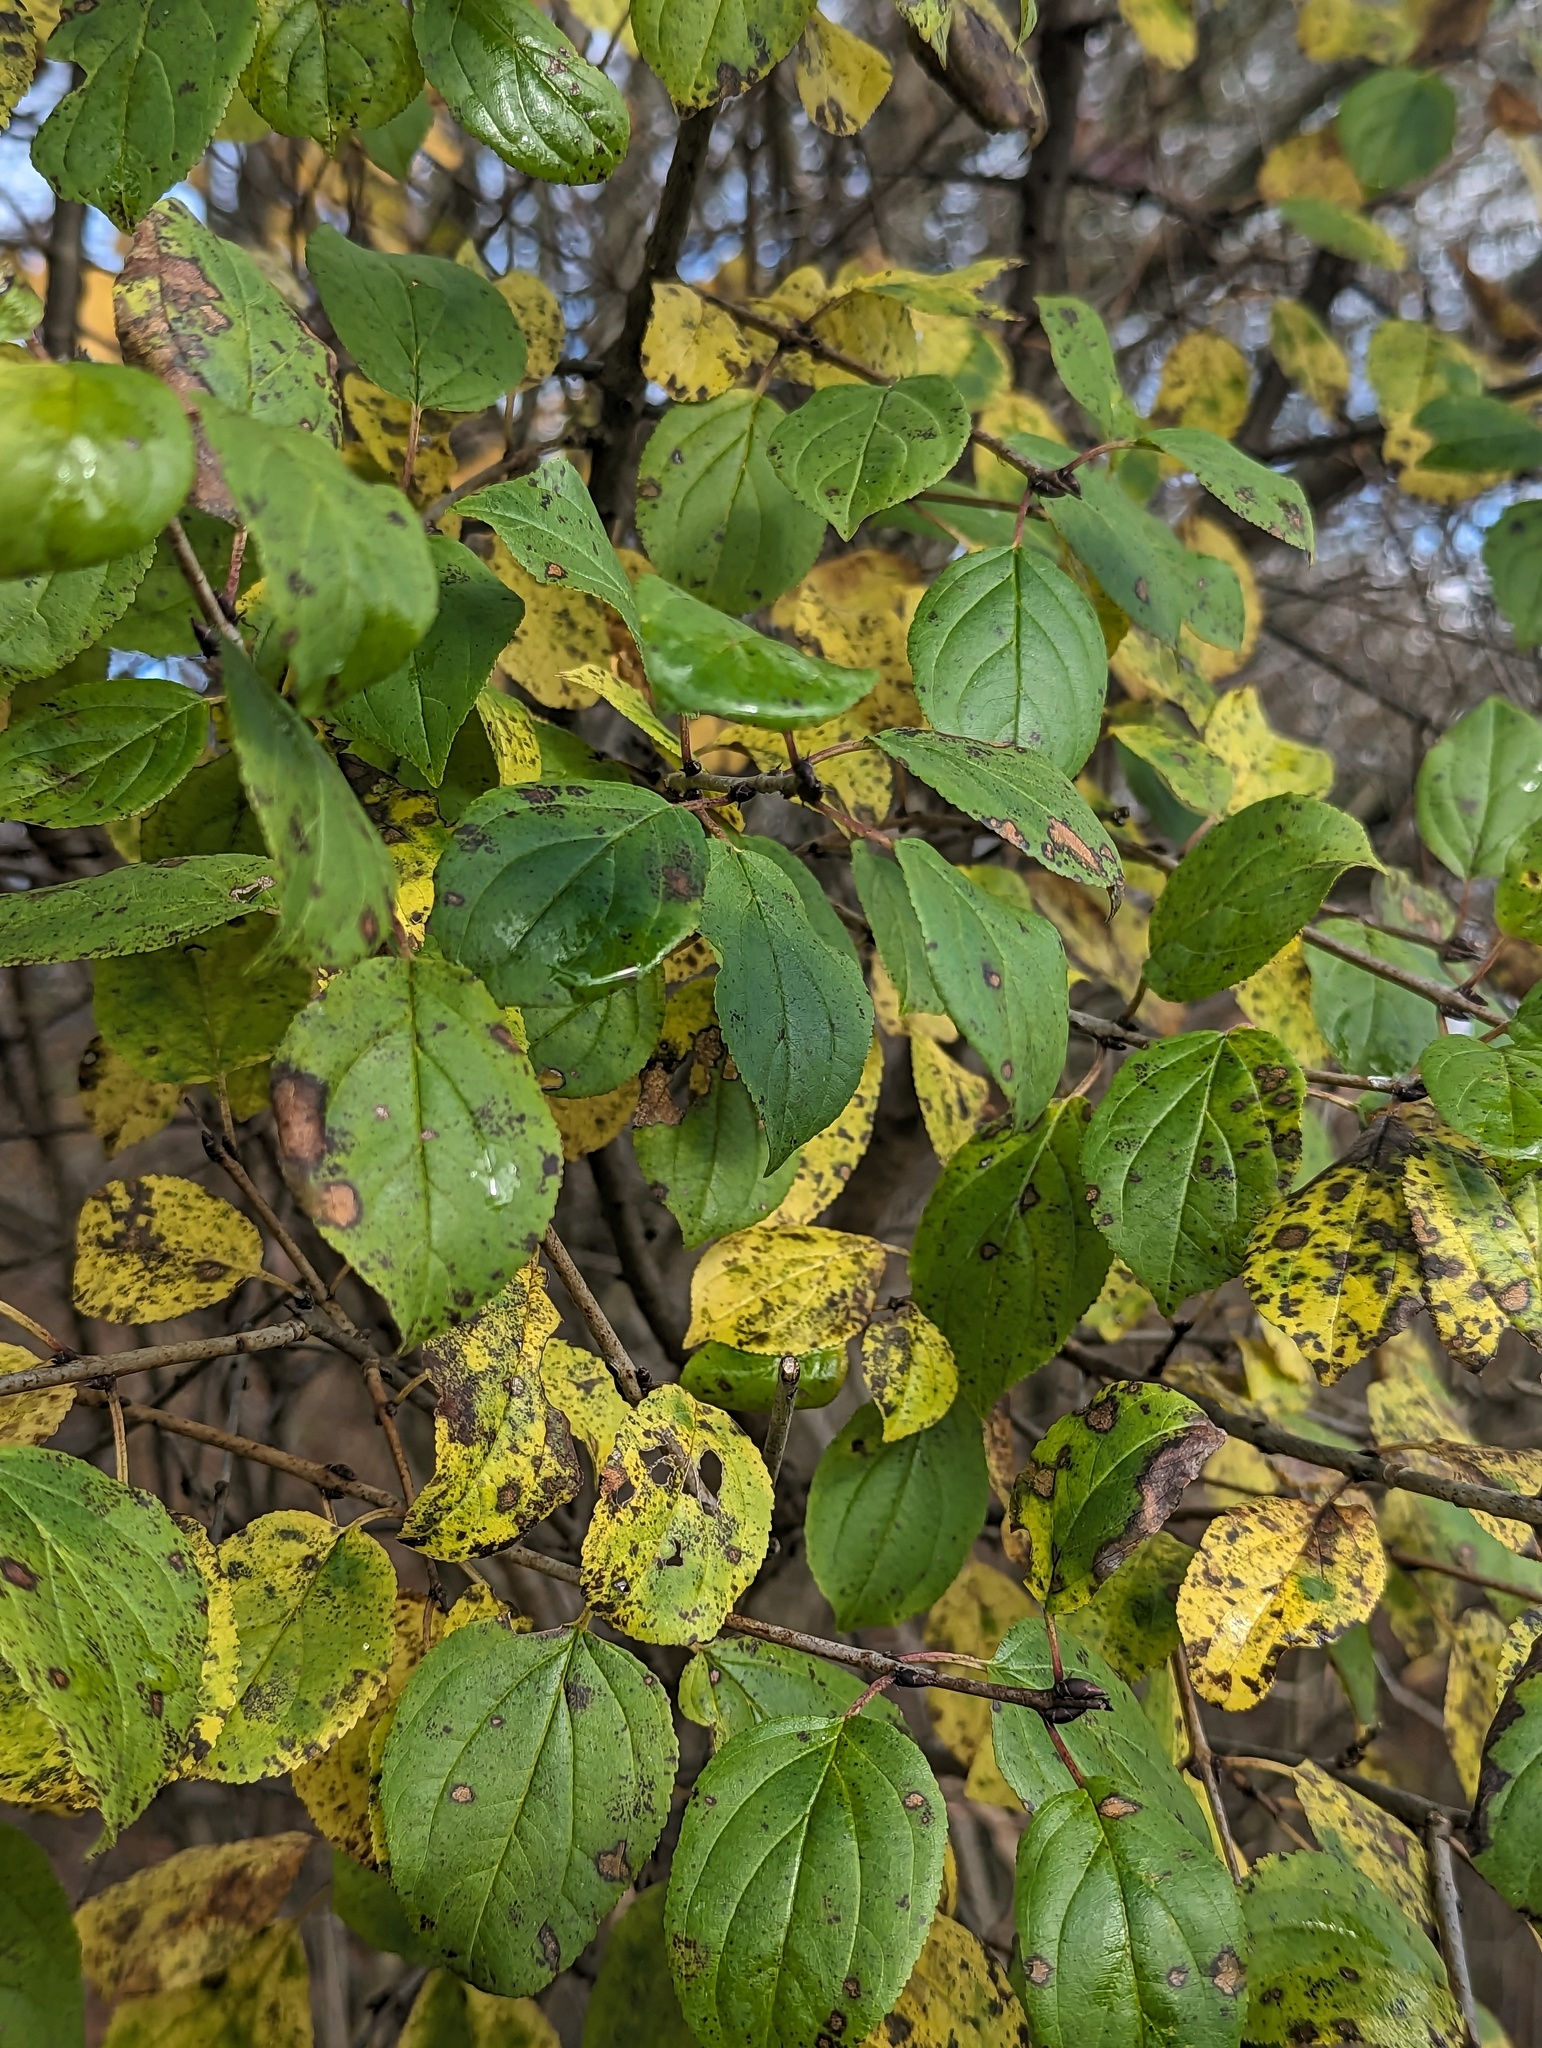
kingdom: Plantae
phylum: Tracheophyta
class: Magnoliopsida
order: Rosales
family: Rhamnaceae
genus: Rhamnus
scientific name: Rhamnus cathartica
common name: Common buckthorn
